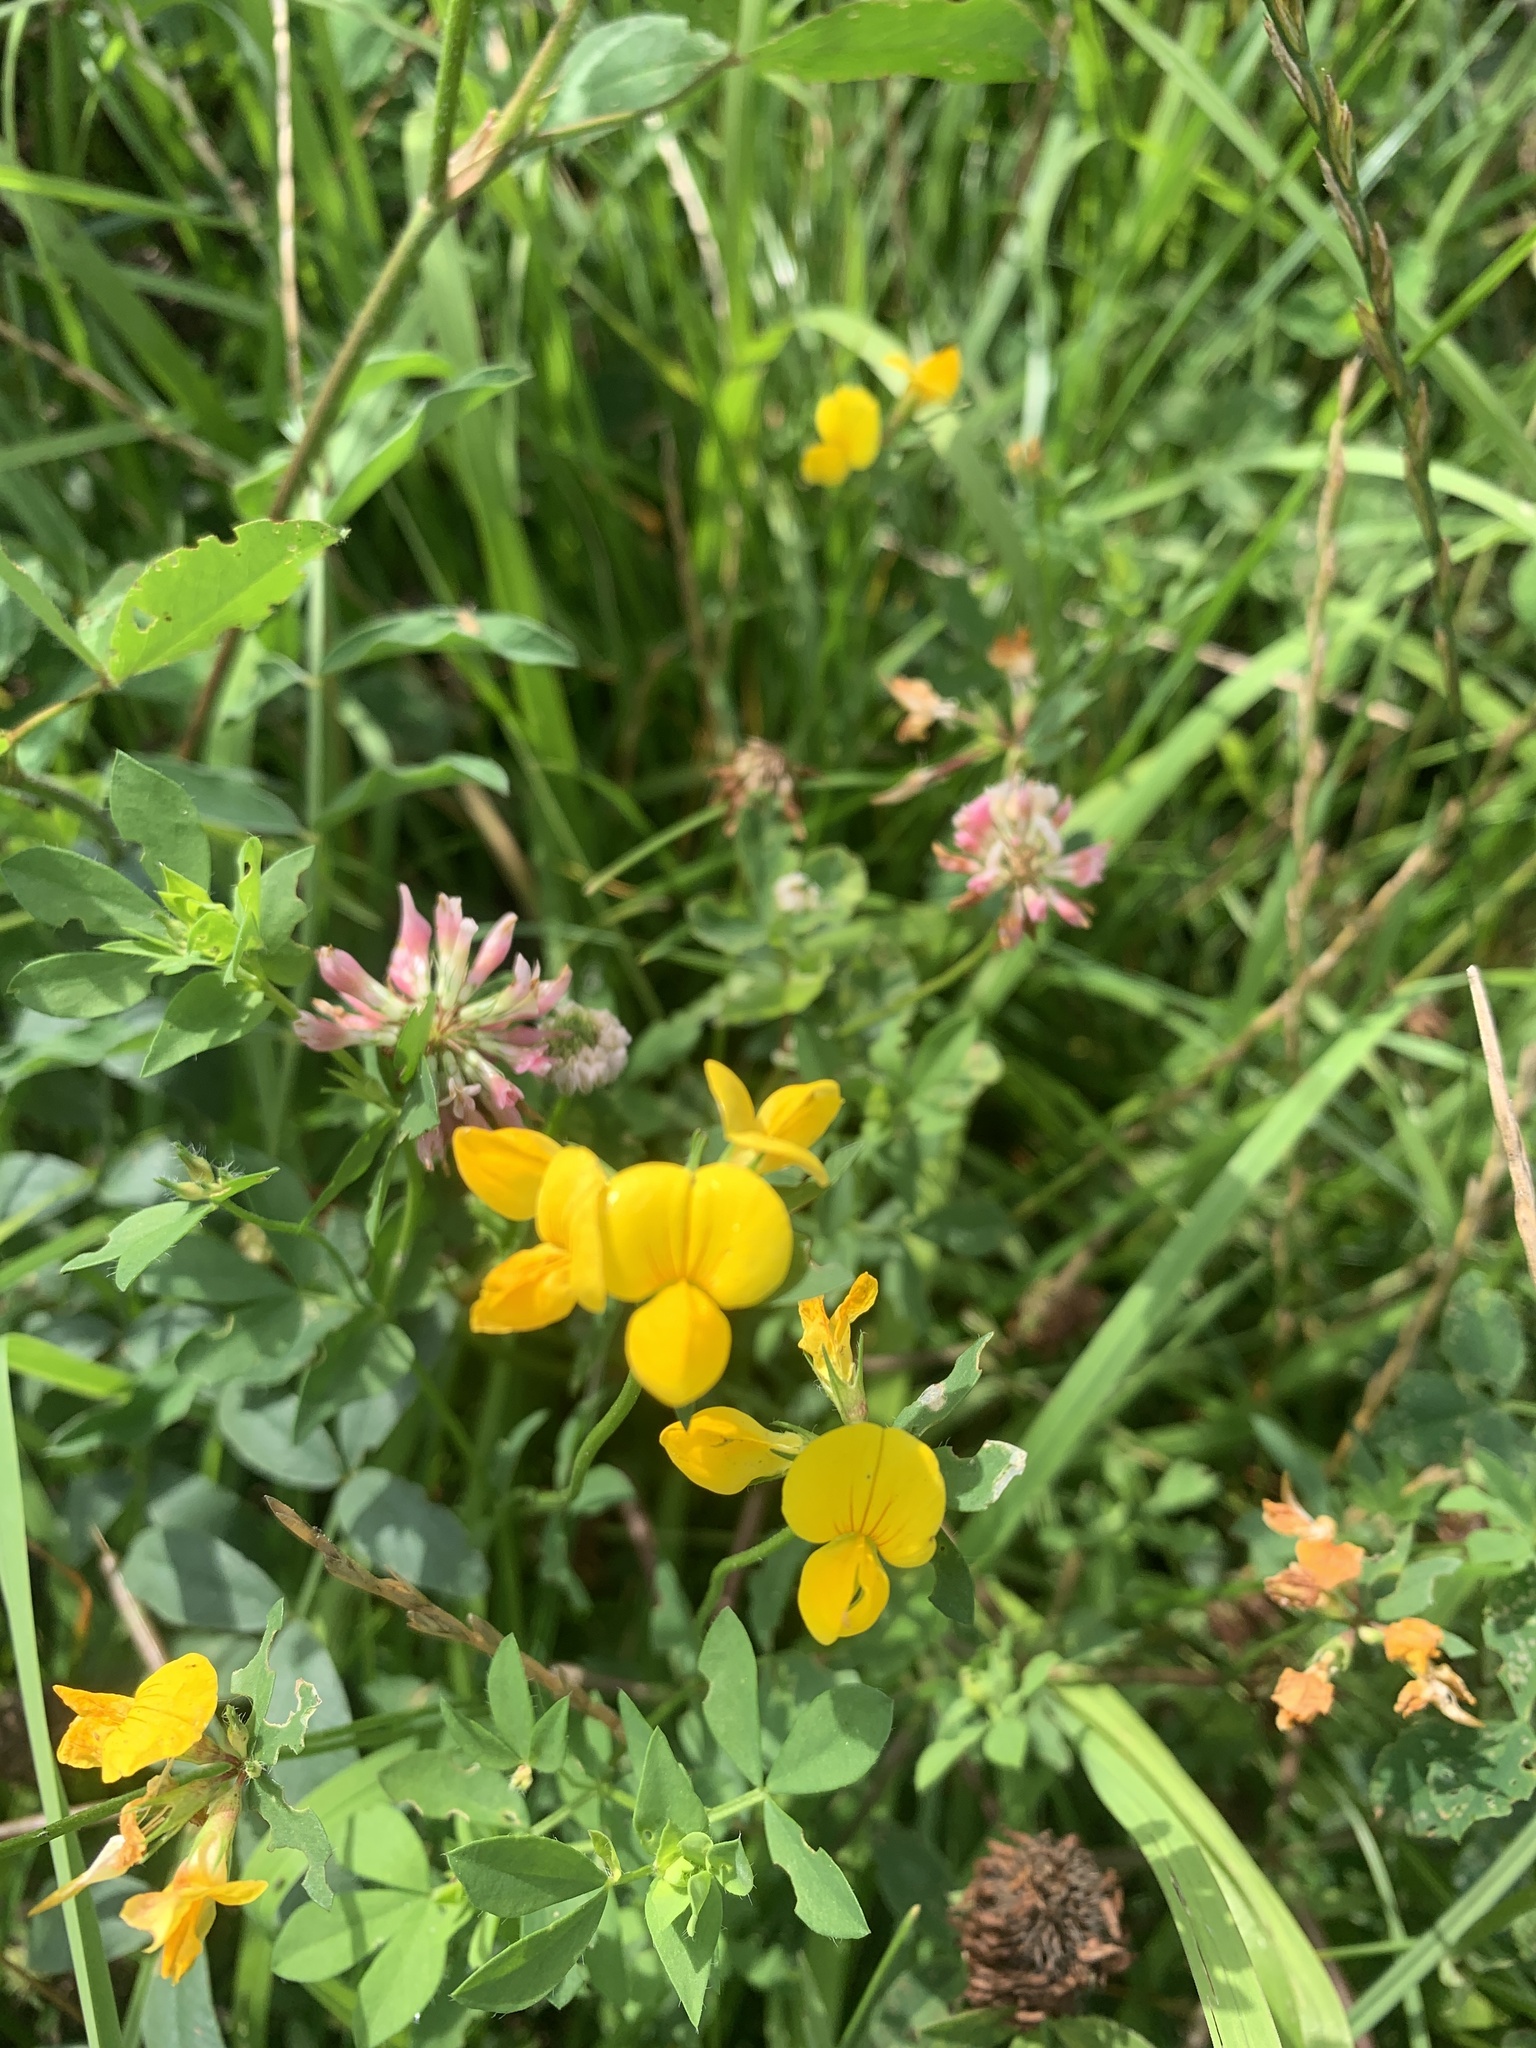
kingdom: Plantae
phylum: Tracheophyta
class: Magnoliopsida
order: Fabales
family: Fabaceae
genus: Lotus
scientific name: Lotus corniculatus
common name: Common bird's-foot-trefoil
